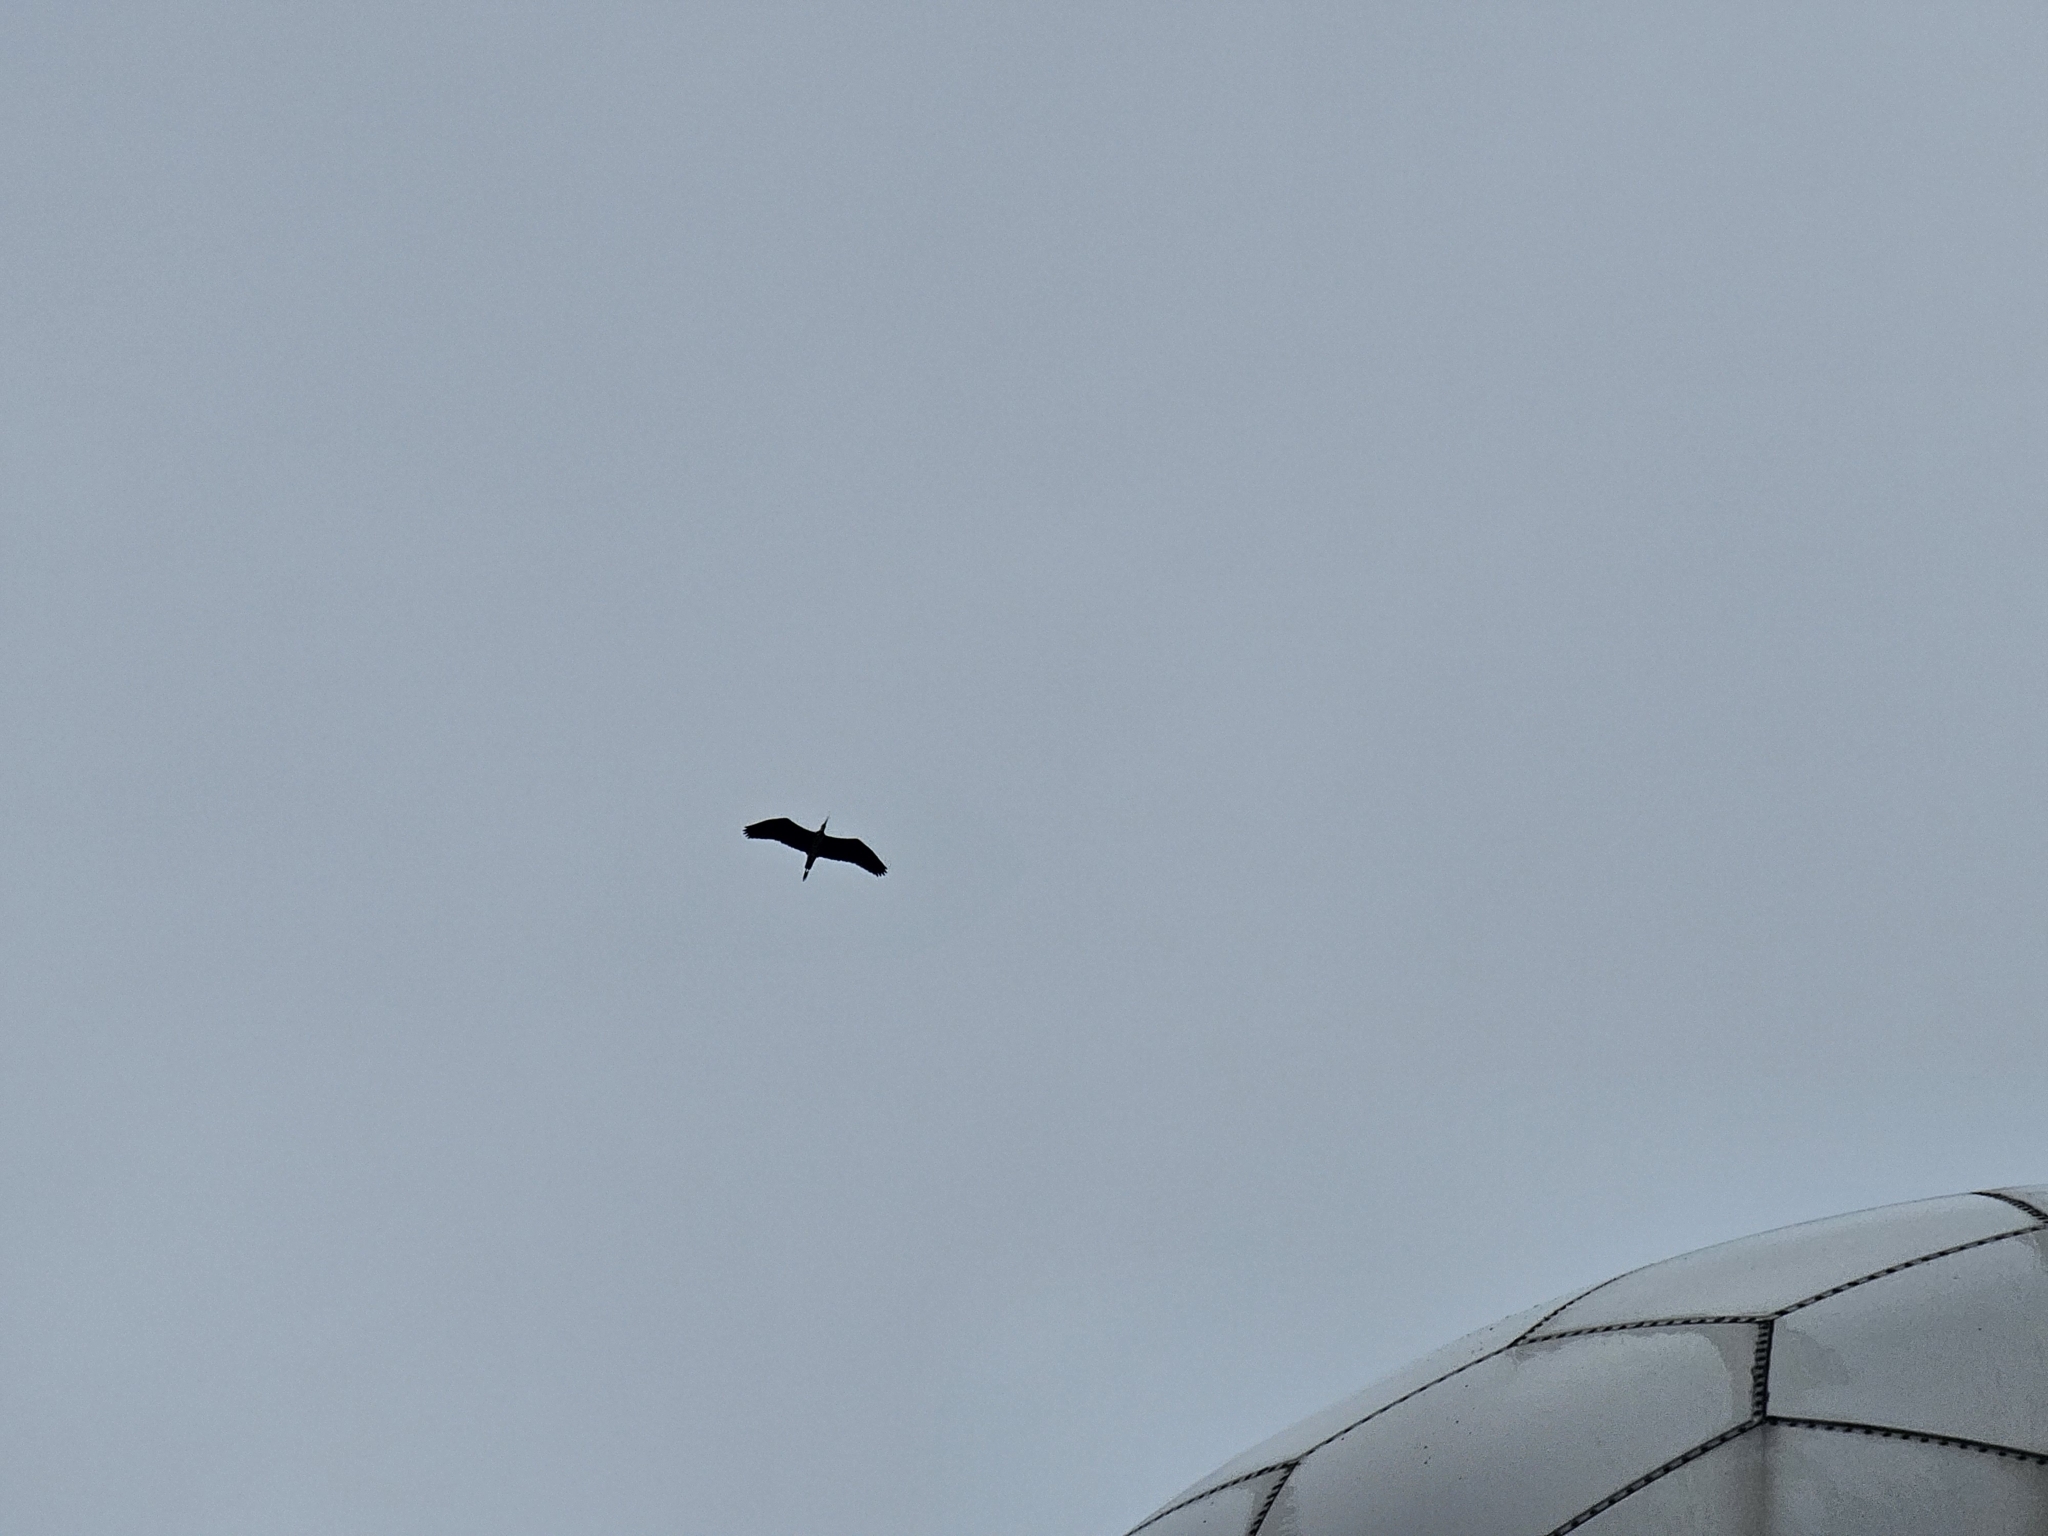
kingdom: Animalia
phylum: Chordata
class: Aves
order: Pelecaniformes
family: Ardeidae
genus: Ardea
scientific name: Ardea cinerea
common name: Grey heron
